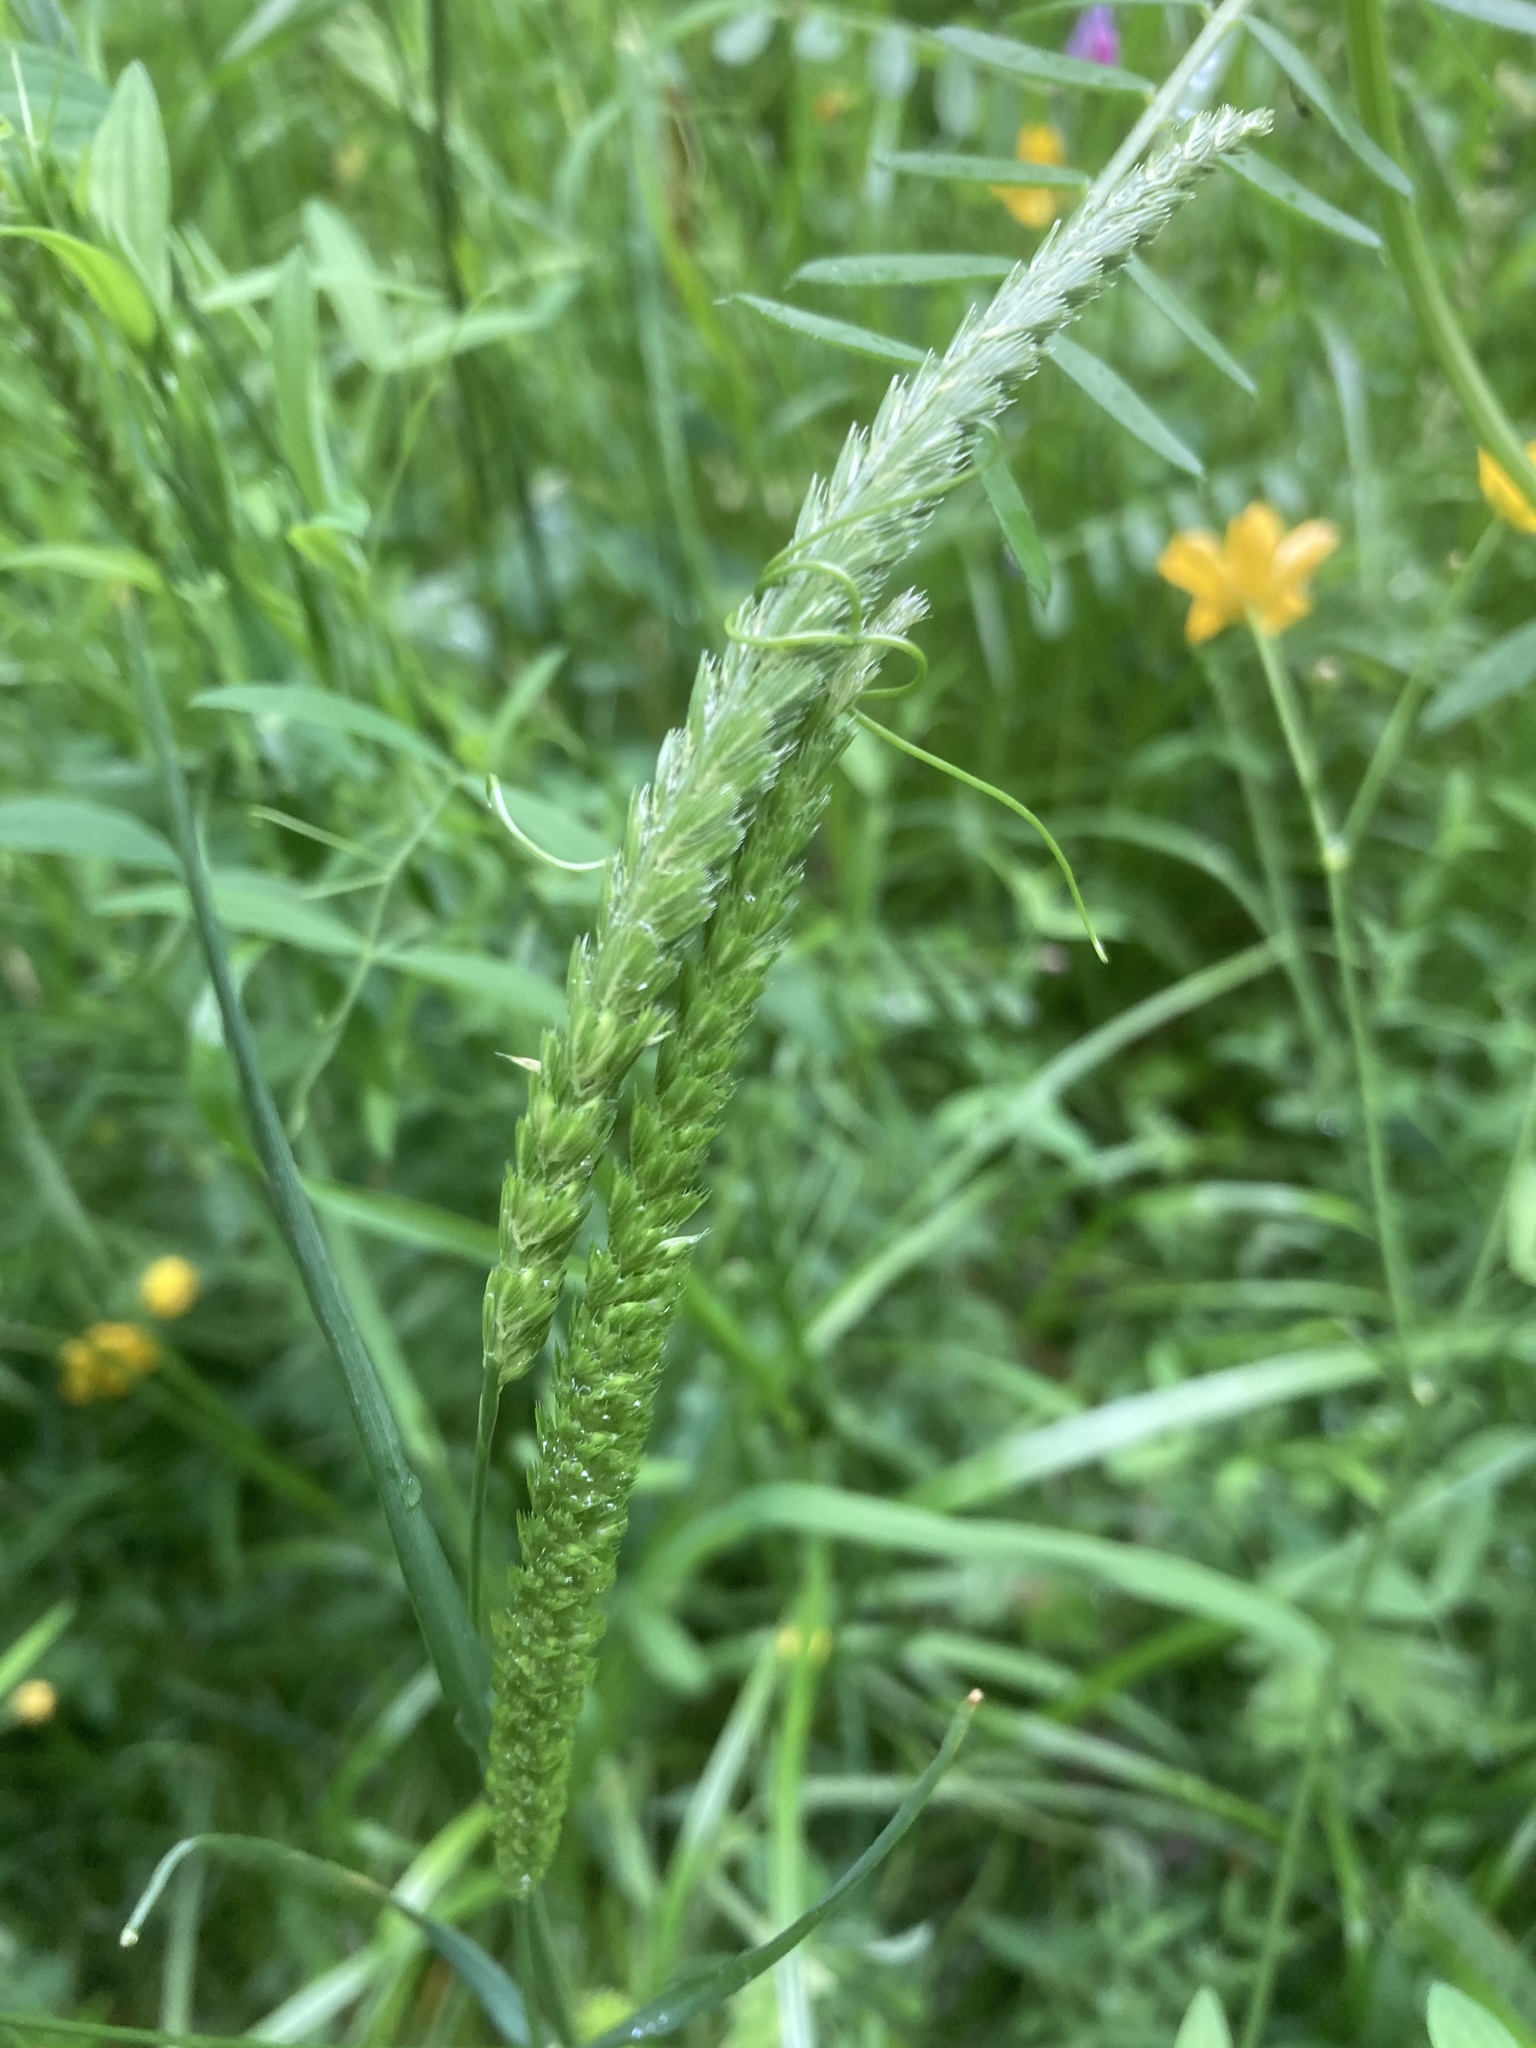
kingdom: Plantae
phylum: Tracheophyta
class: Liliopsida
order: Poales
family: Poaceae
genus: Cynosurus
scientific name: Cynosurus cristatus
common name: Crested dog's-tail
